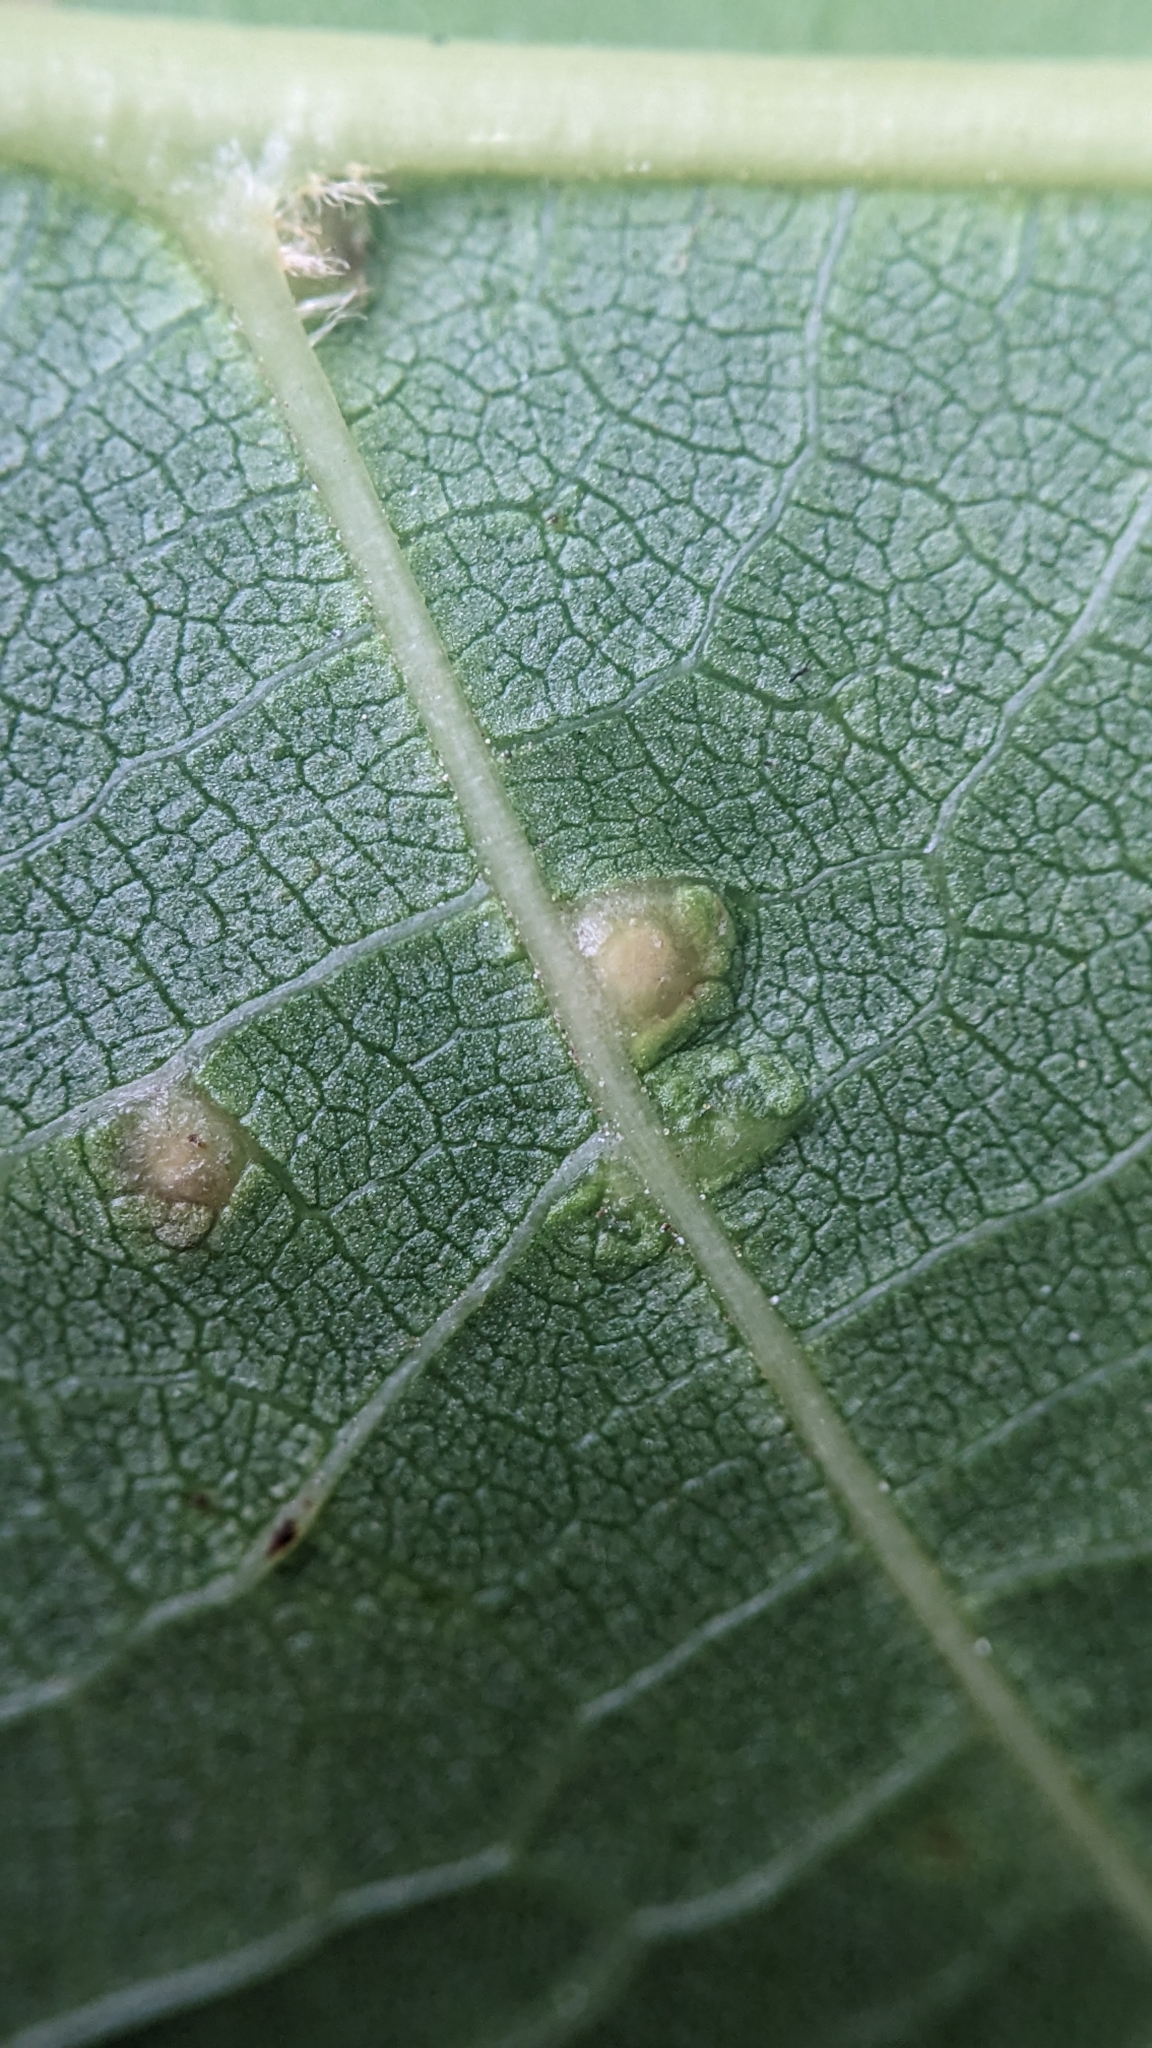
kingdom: Animalia
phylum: Arthropoda
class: Arachnida
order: Trombidiformes
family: Eriophyidae
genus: Aceria
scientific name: Aceria tristriata
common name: Persian walnut leaf blister mite
